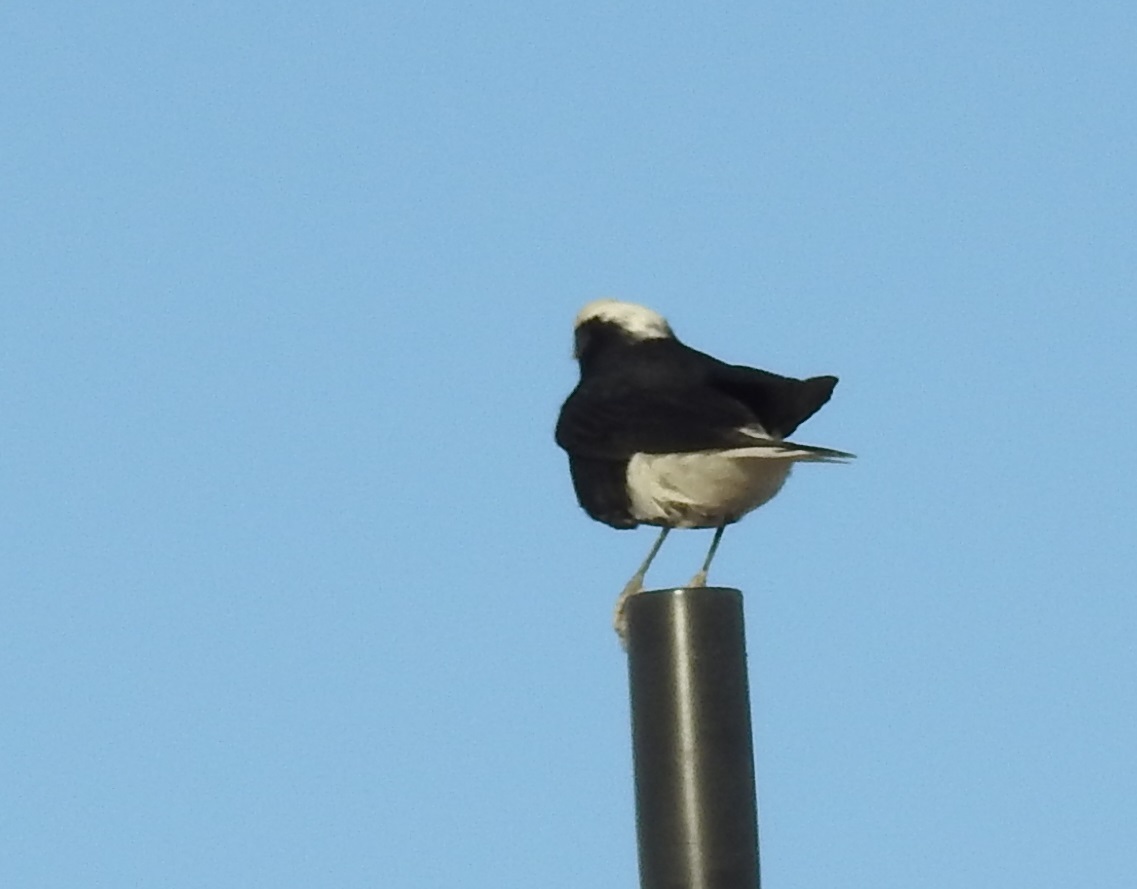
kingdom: Animalia
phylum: Chordata
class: Aves
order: Passeriformes
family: Muscicapidae
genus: Oenanthe
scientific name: Oenanthe leucopyga
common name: White-crowned wheatear
